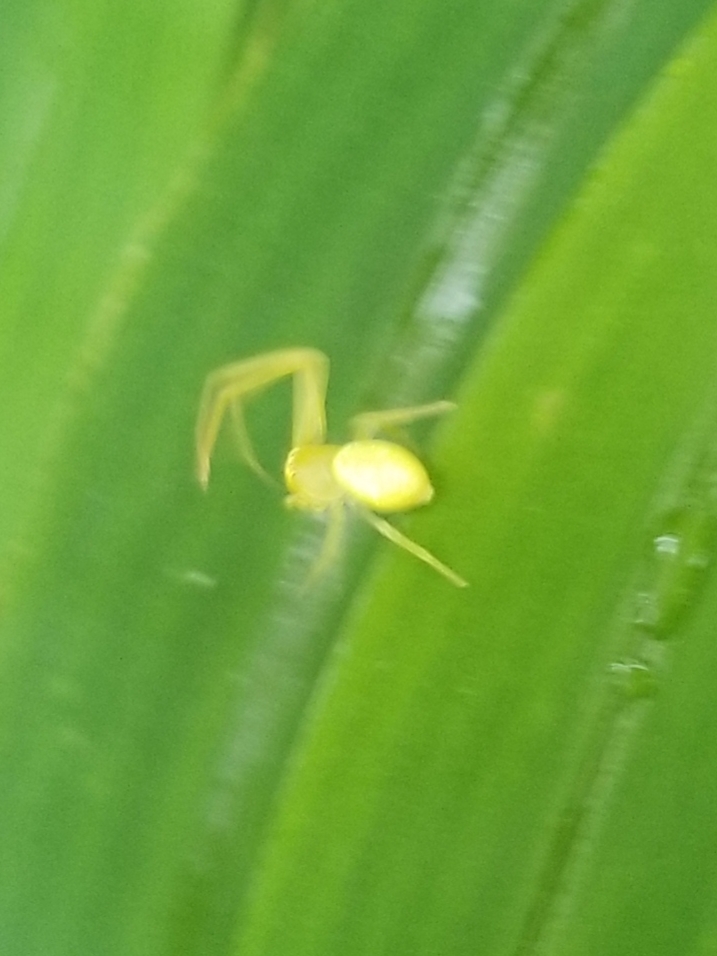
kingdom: Animalia
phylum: Arthropoda
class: Arachnida
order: Araneae
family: Thomisidae
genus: Misumessus
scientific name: Misumessus oblongus
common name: American green crab spider
